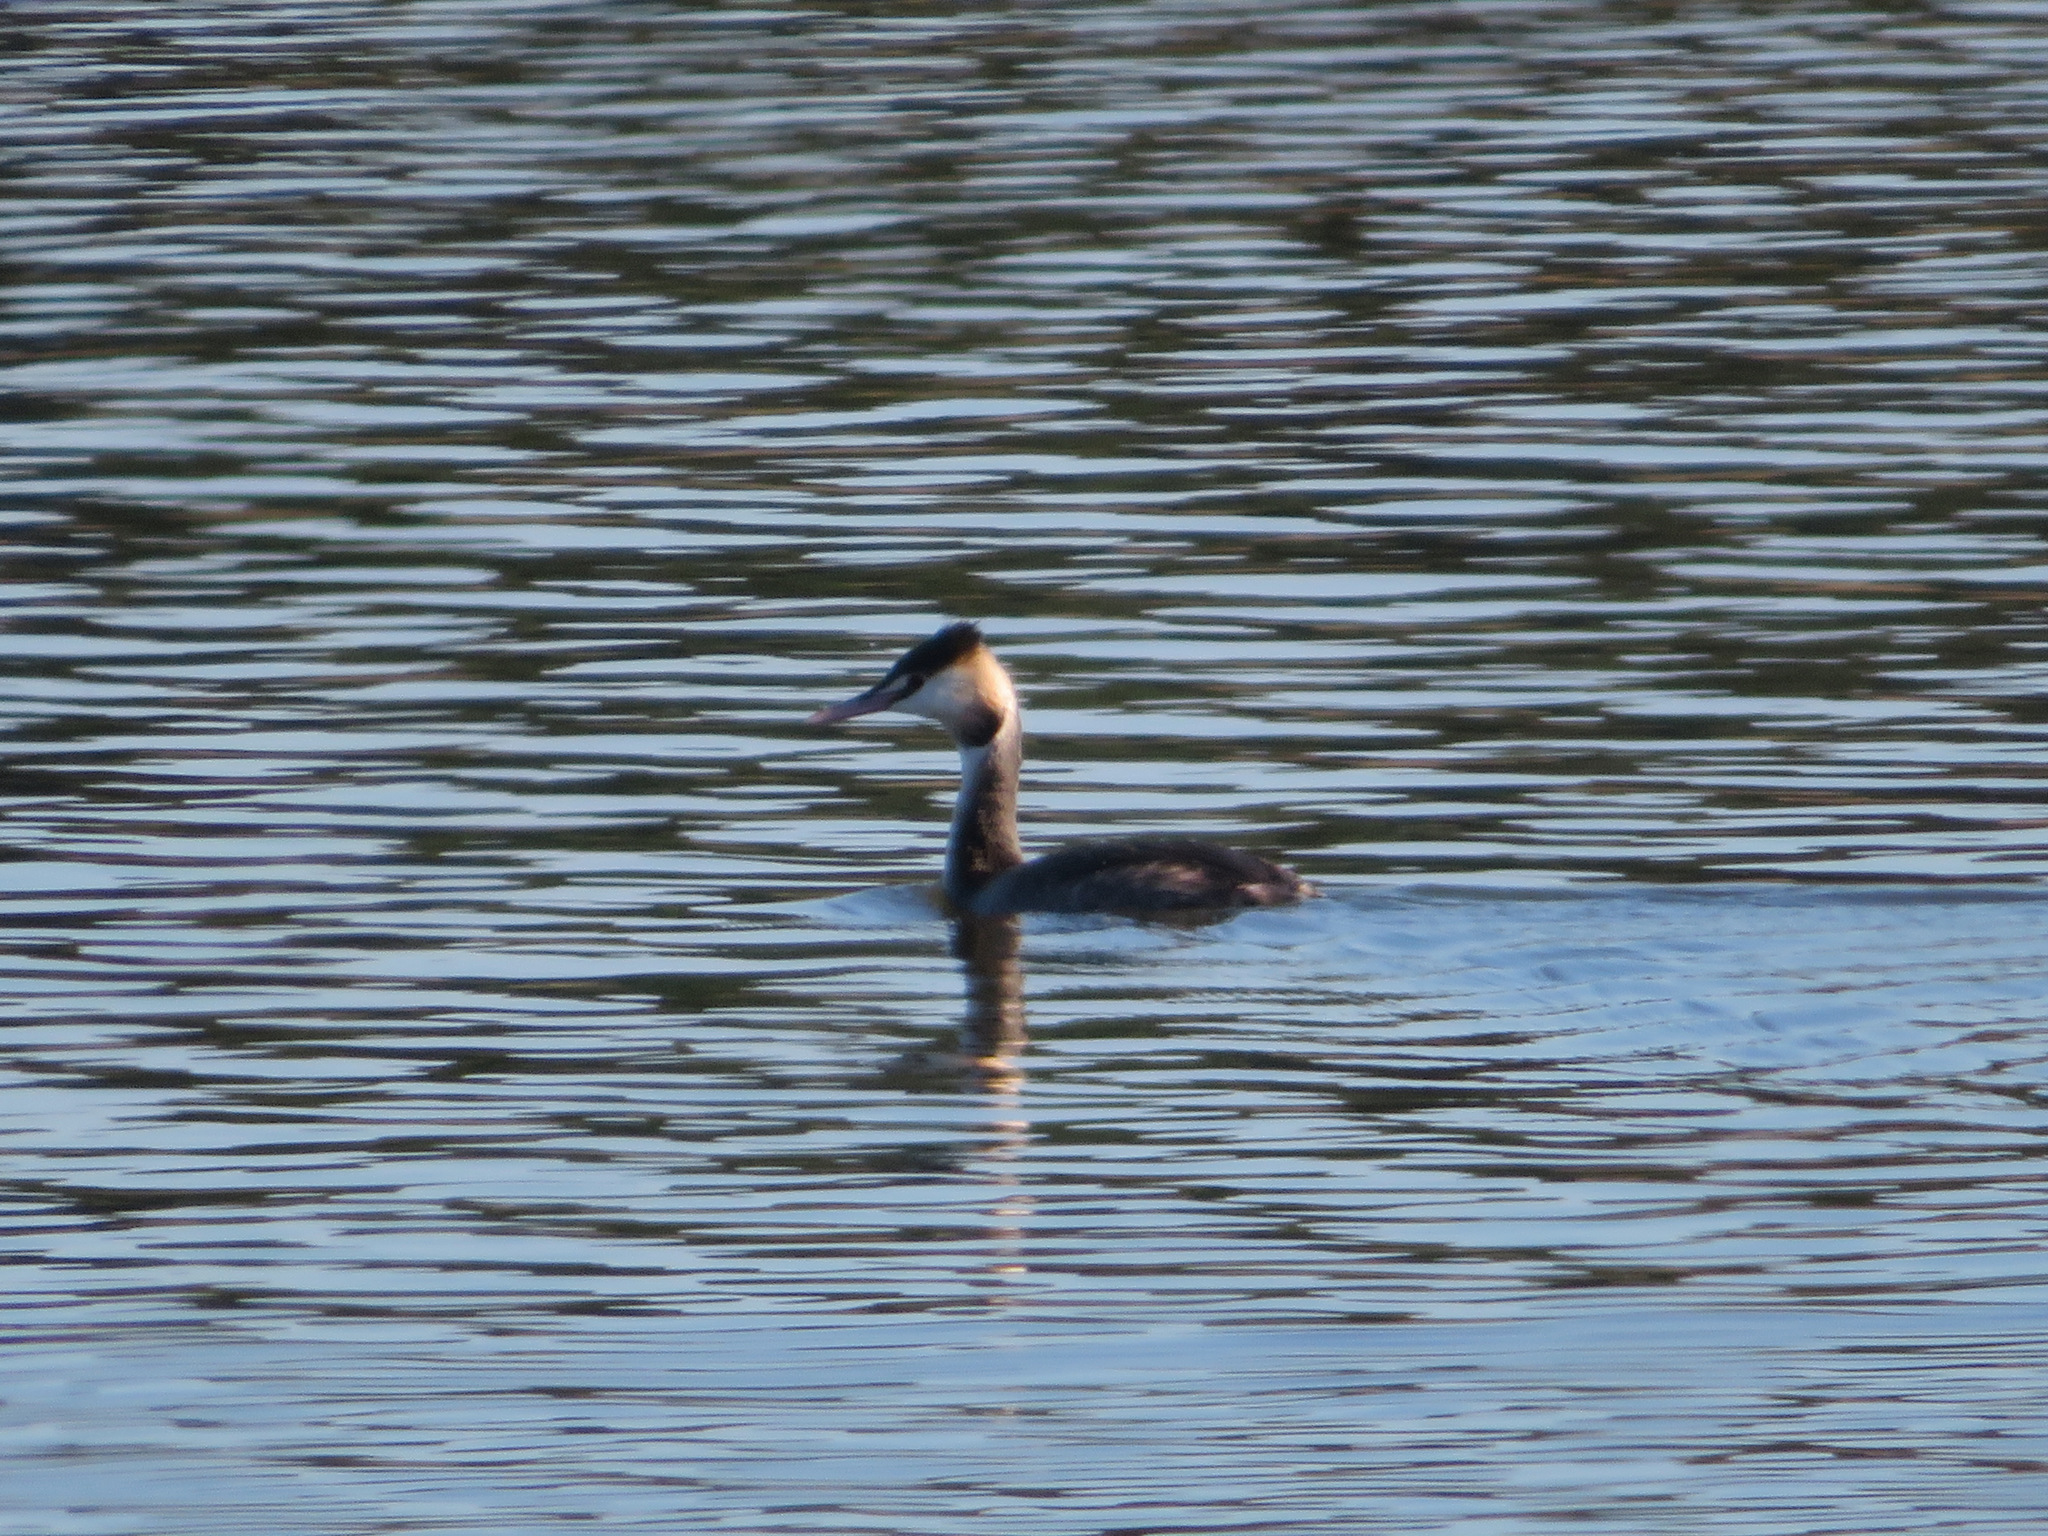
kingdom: Animalia
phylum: Chordata
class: Aves
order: Podicipediformes
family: Podicipedidae
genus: Podiceps
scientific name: Podiceps cristatus
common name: Great crested grebe
